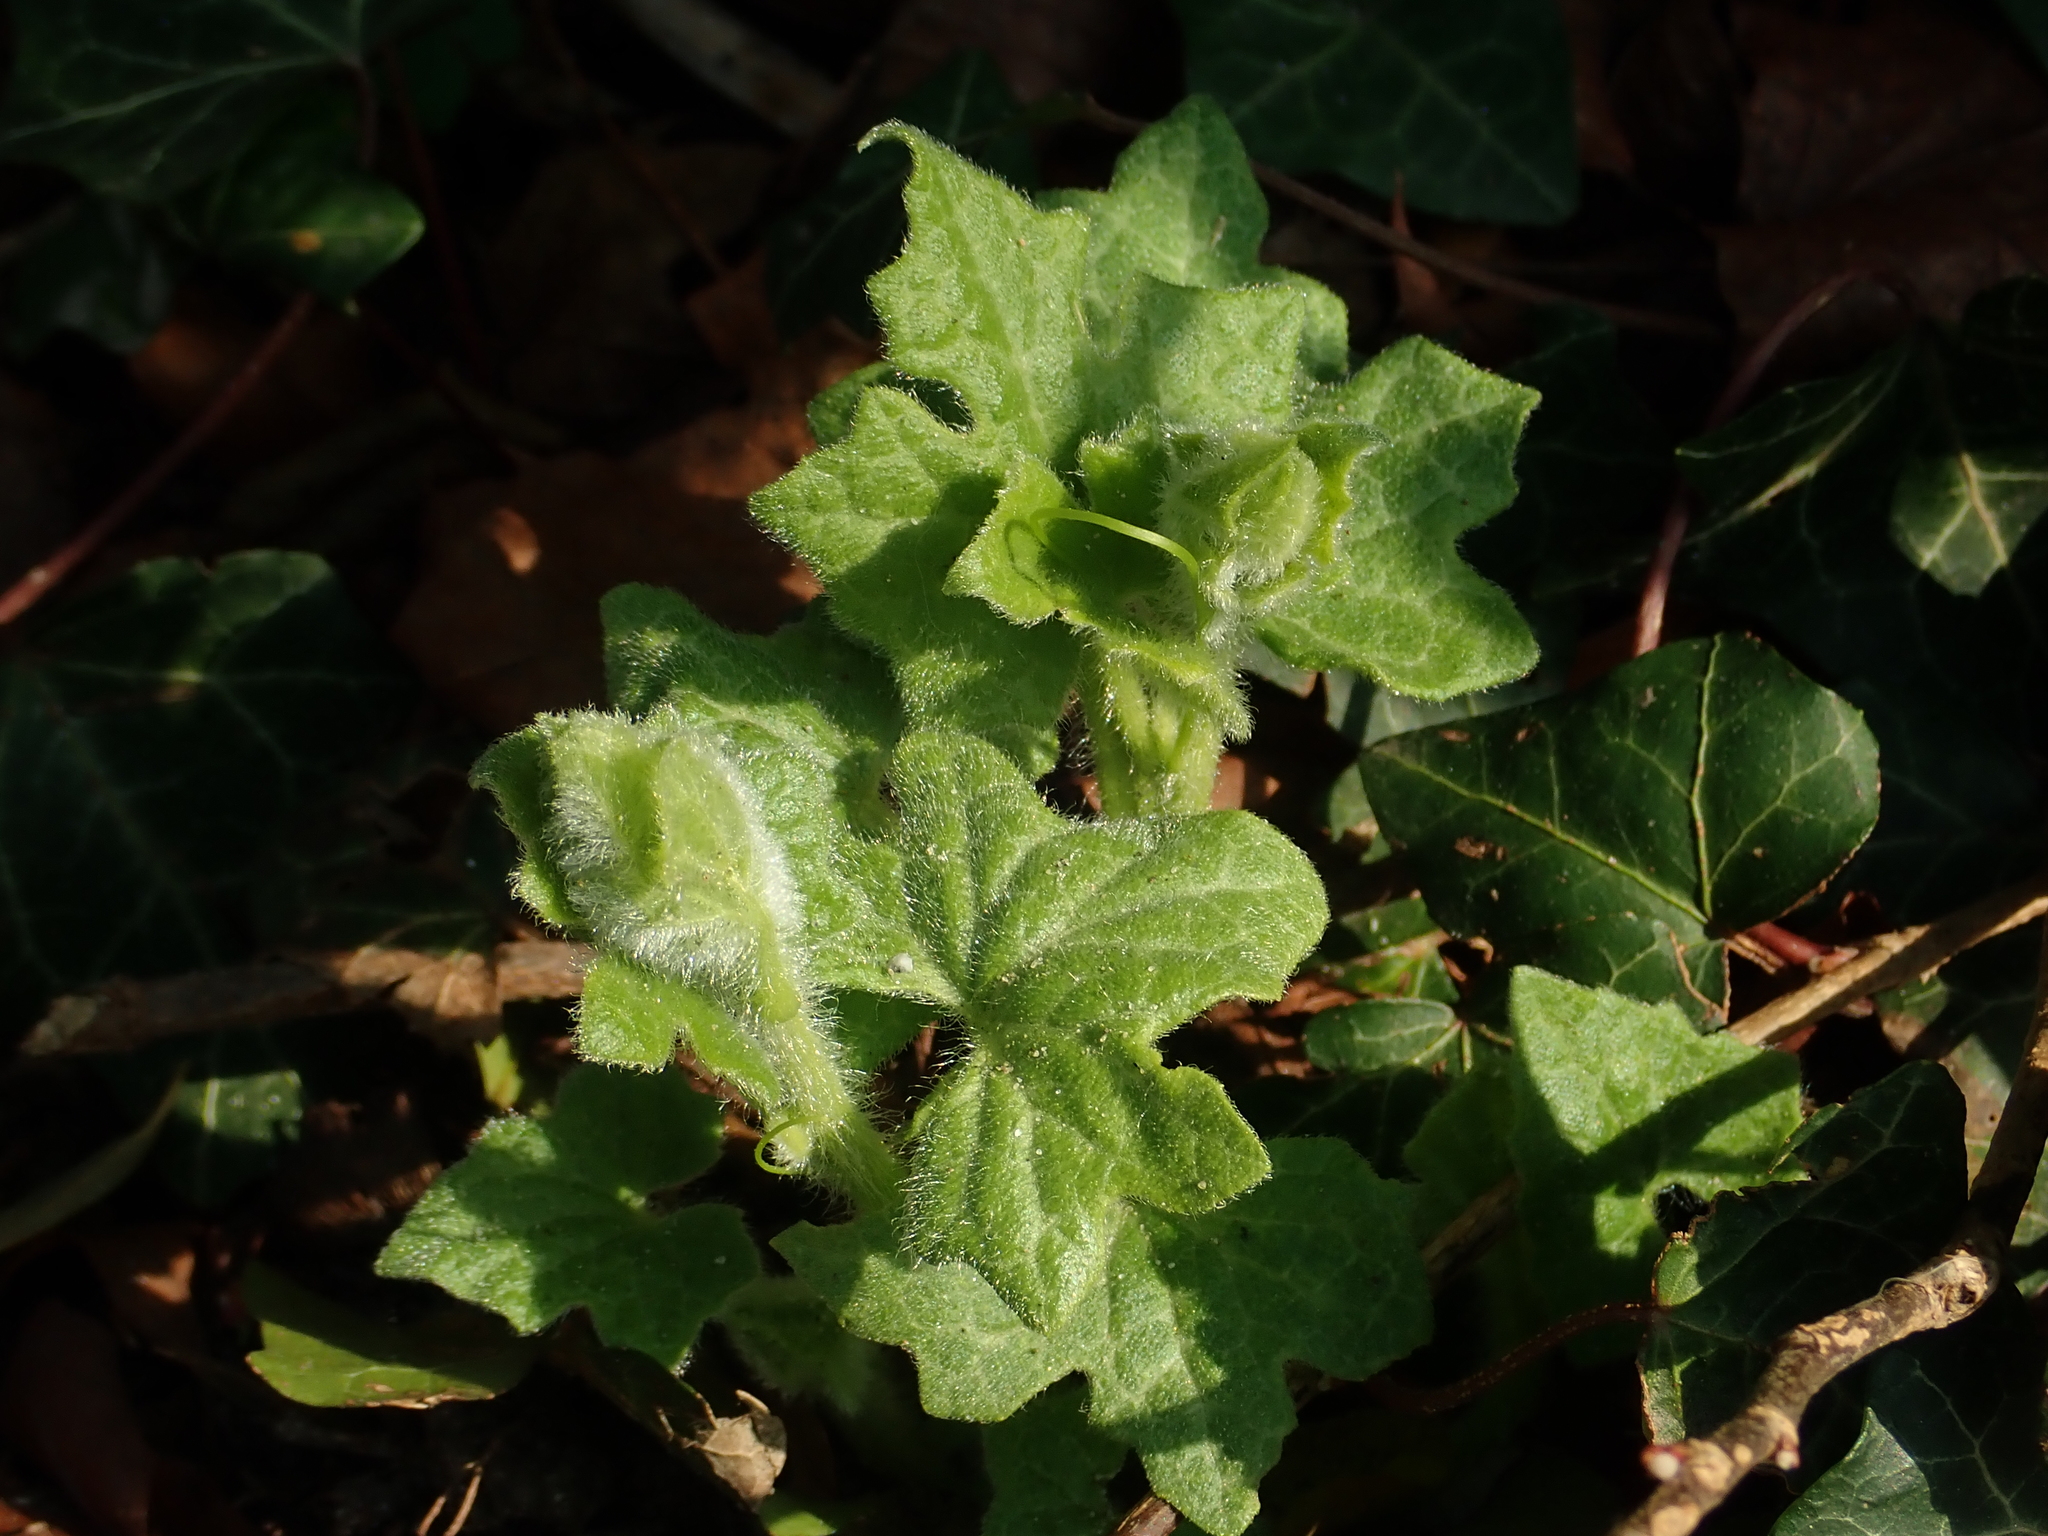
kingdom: Plantae
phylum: Tracheophyta
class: Magnoliopsida
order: Cucurbitales
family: Cucurbitaceae
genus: Bryonia
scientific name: Bryonia cretica
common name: Cretan bryony
